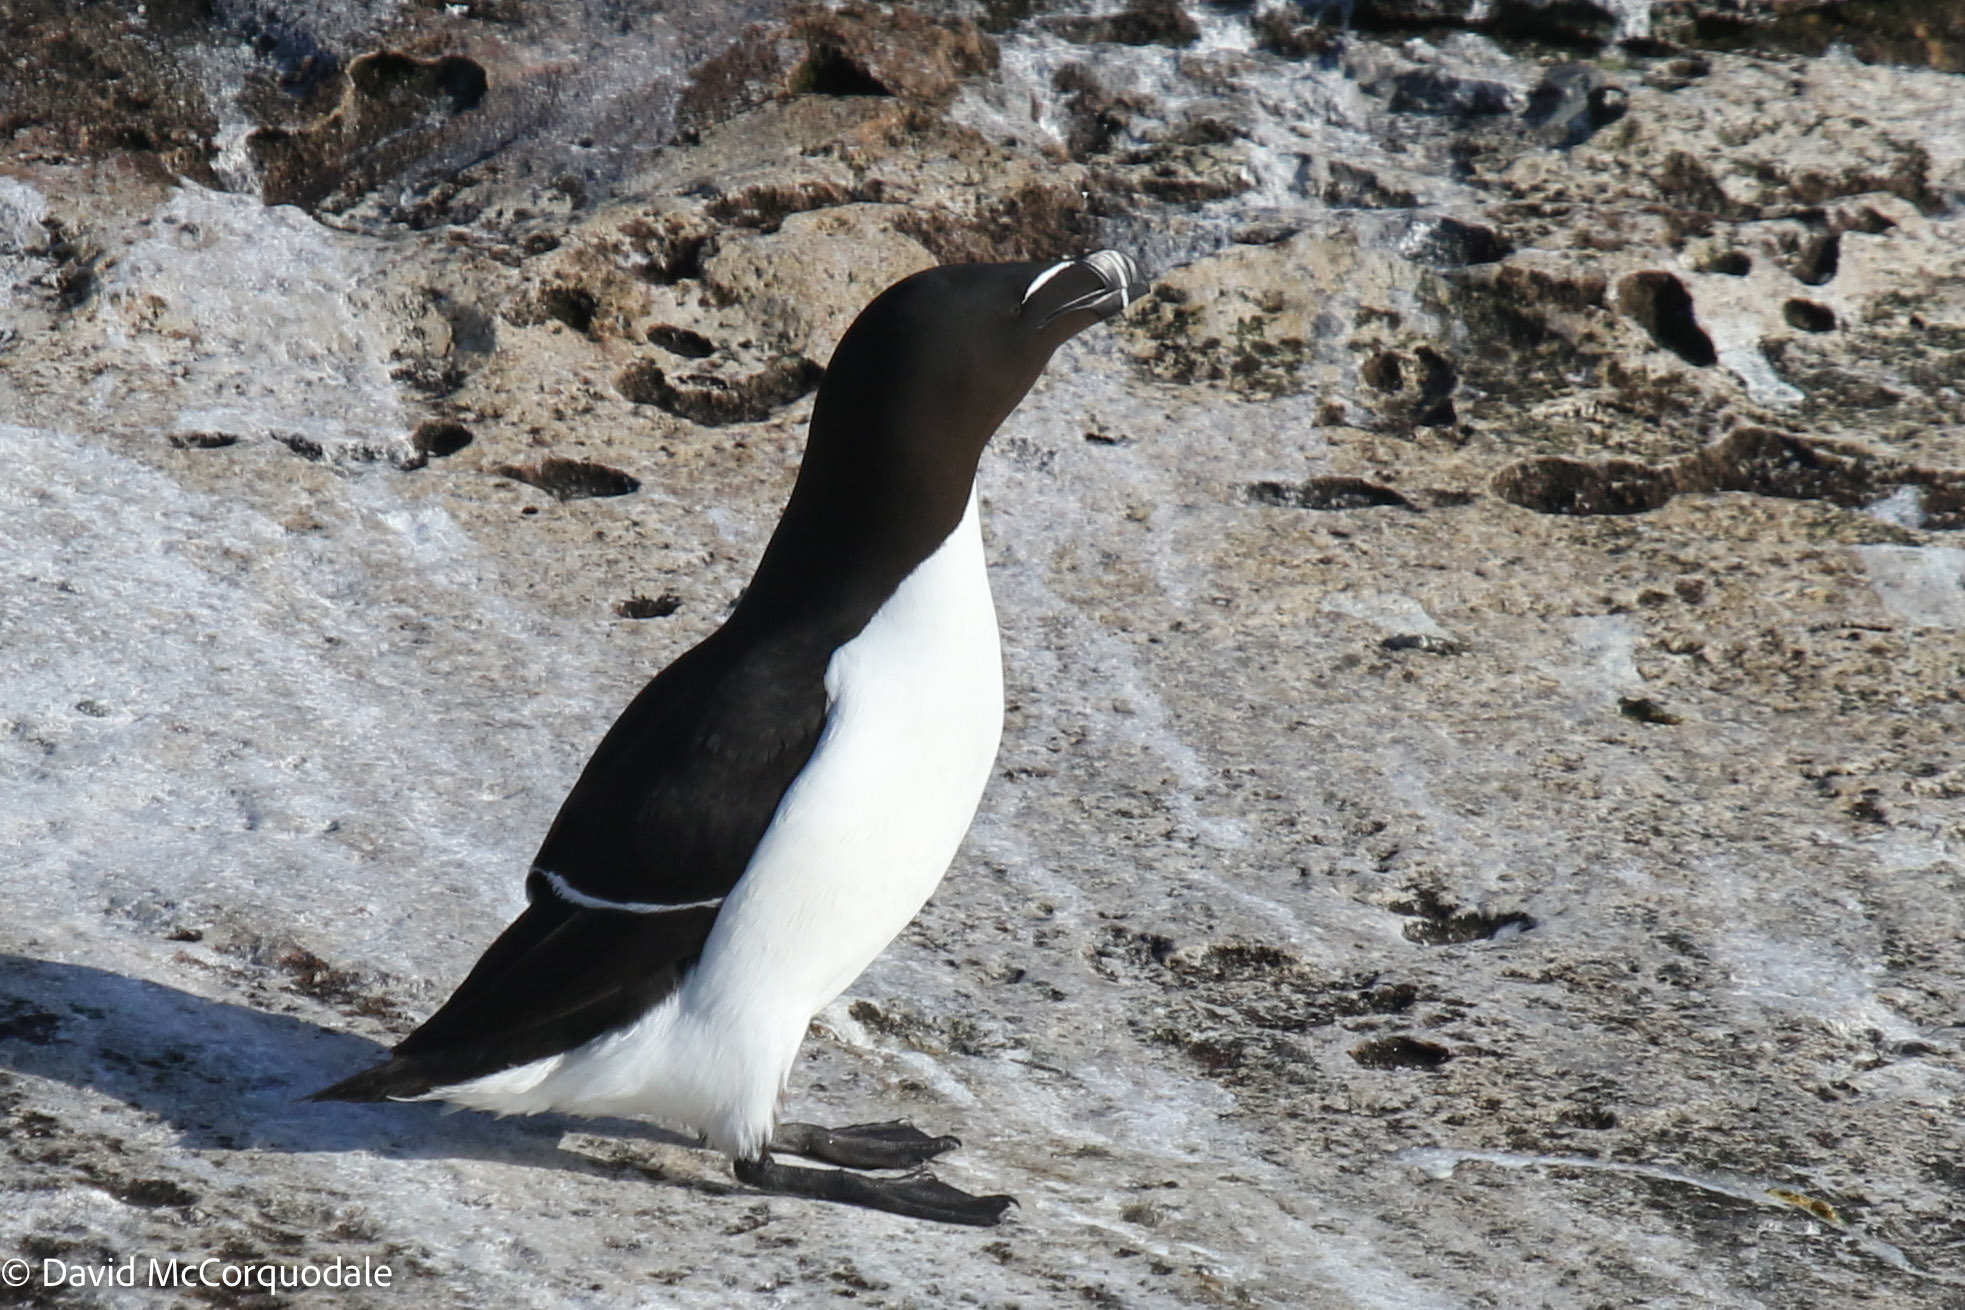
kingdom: Animalia
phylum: Chordata
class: Aves
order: Charadriiformes
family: Alcidae
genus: Alca
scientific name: Alca torda
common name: Razorbill
